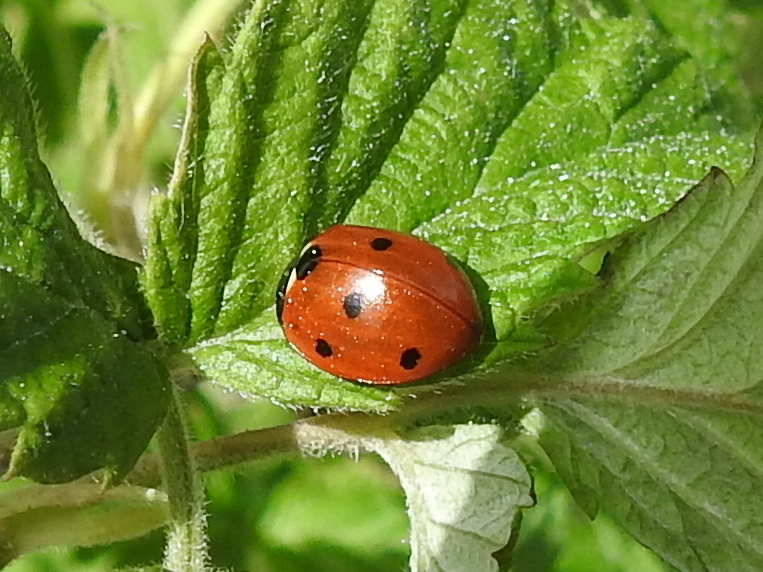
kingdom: Animalia
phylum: Arthropoda
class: Insecta
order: Coleoptera
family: Coccinellidae
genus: Coccinella
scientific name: Coccinella septempunctata
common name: Sevenspotted lady beetle
